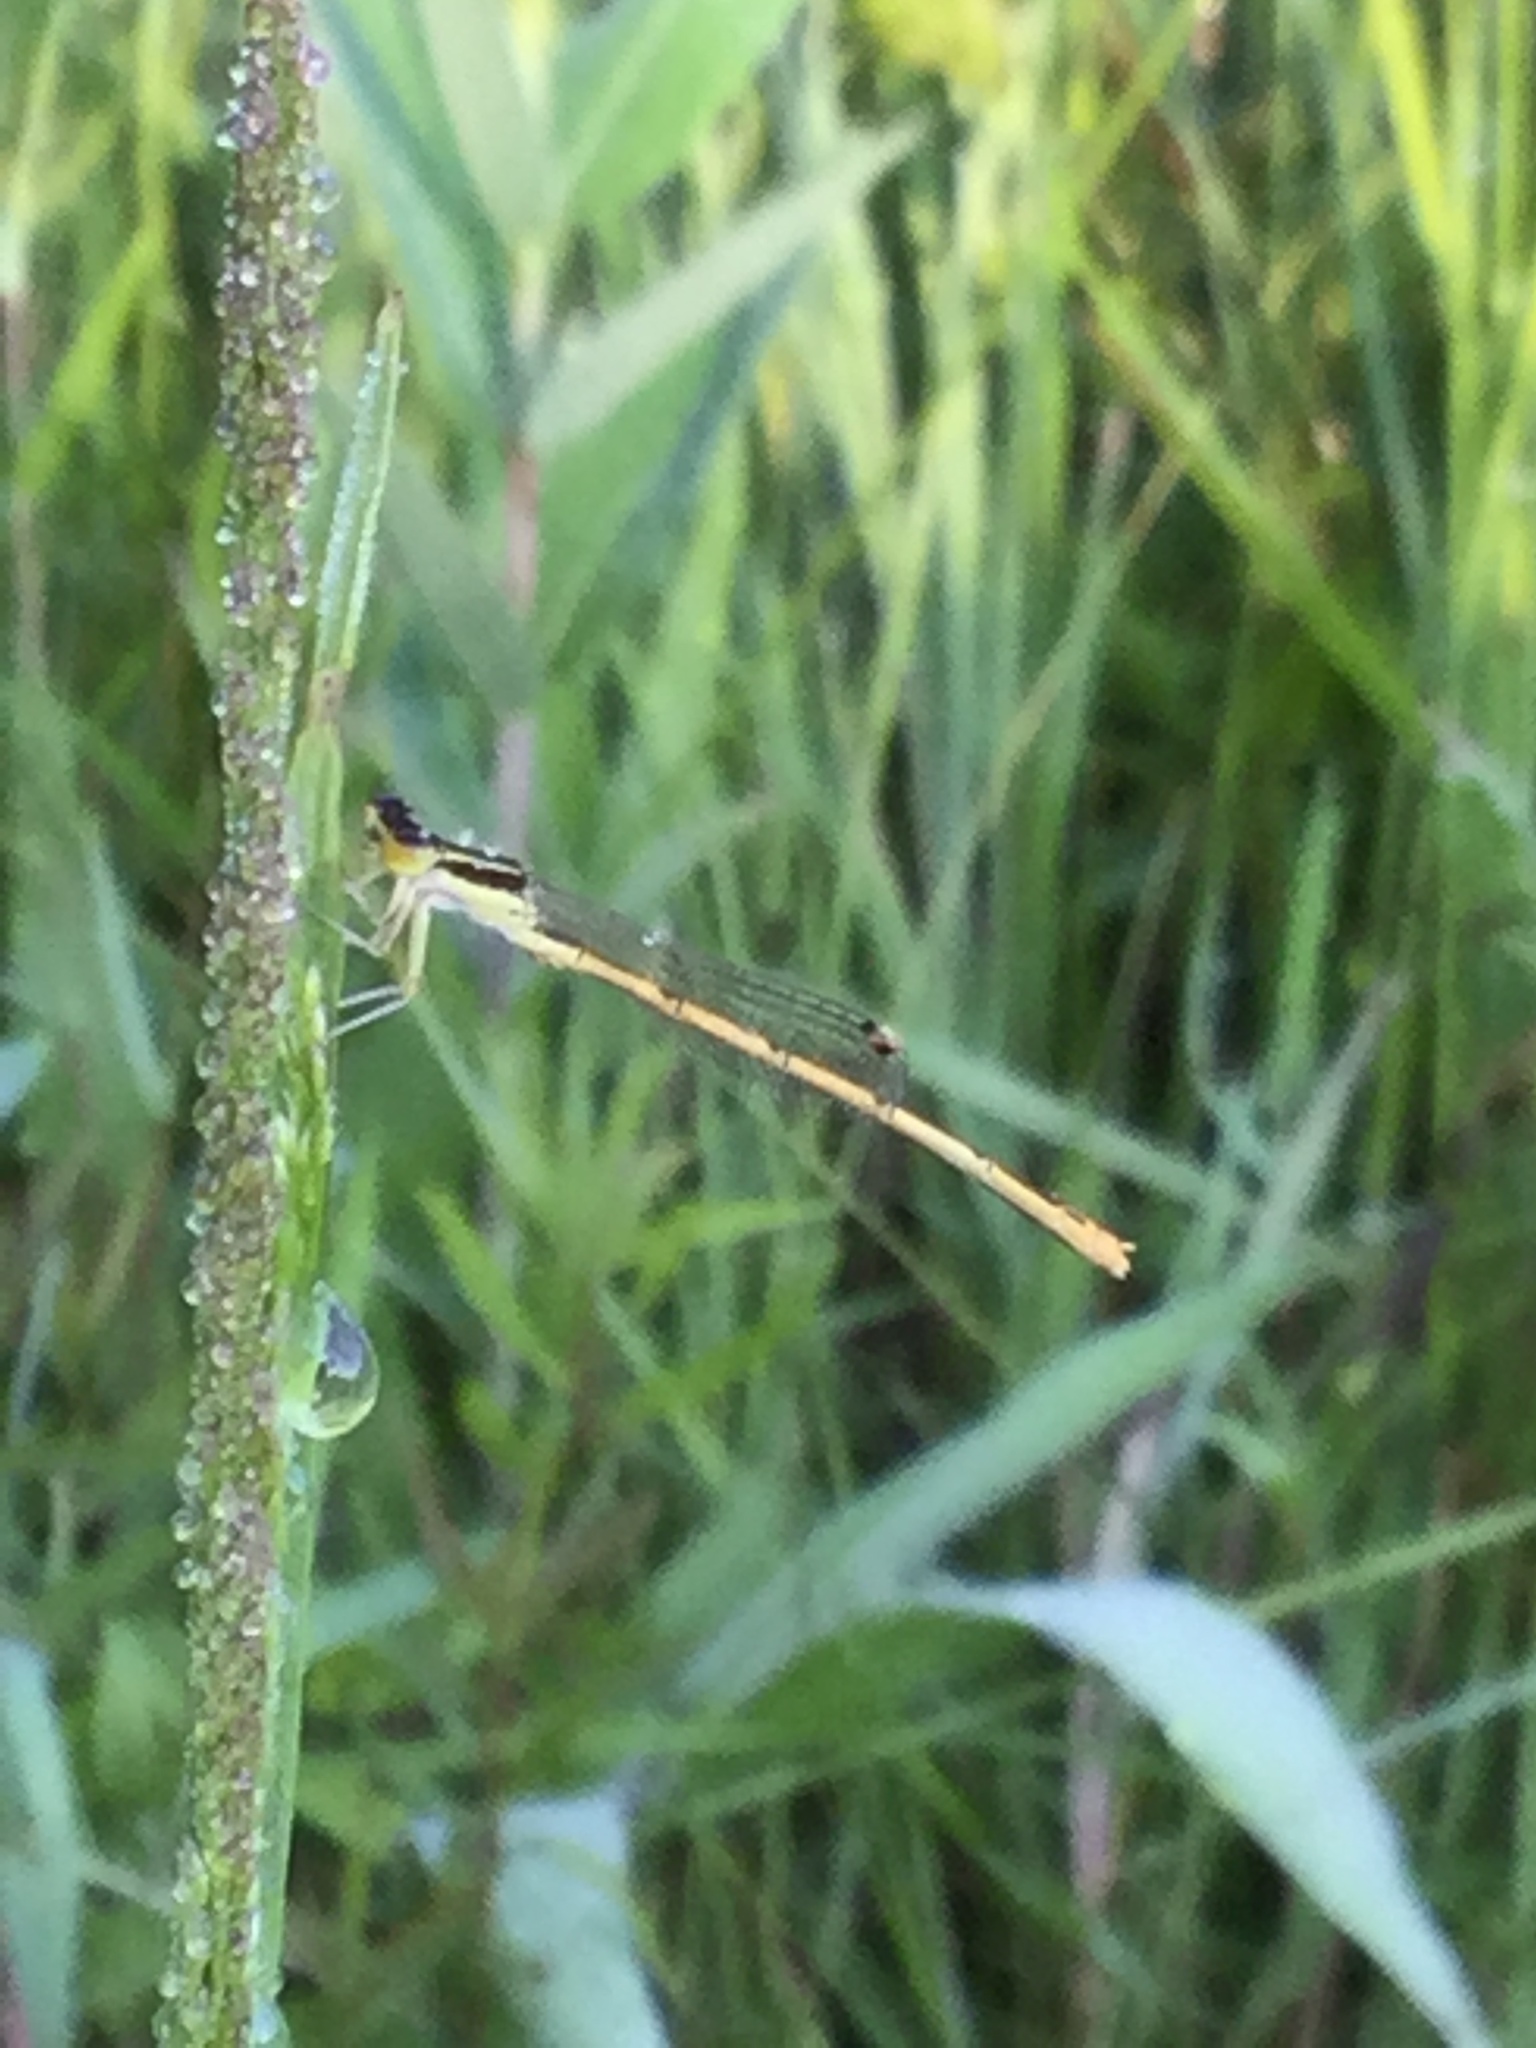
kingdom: Animalia
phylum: Arthropoda
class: Insecta
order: Odonata
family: Coenagrionidae
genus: Ischnura
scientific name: Ischnura hastata
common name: Citrine forktail
